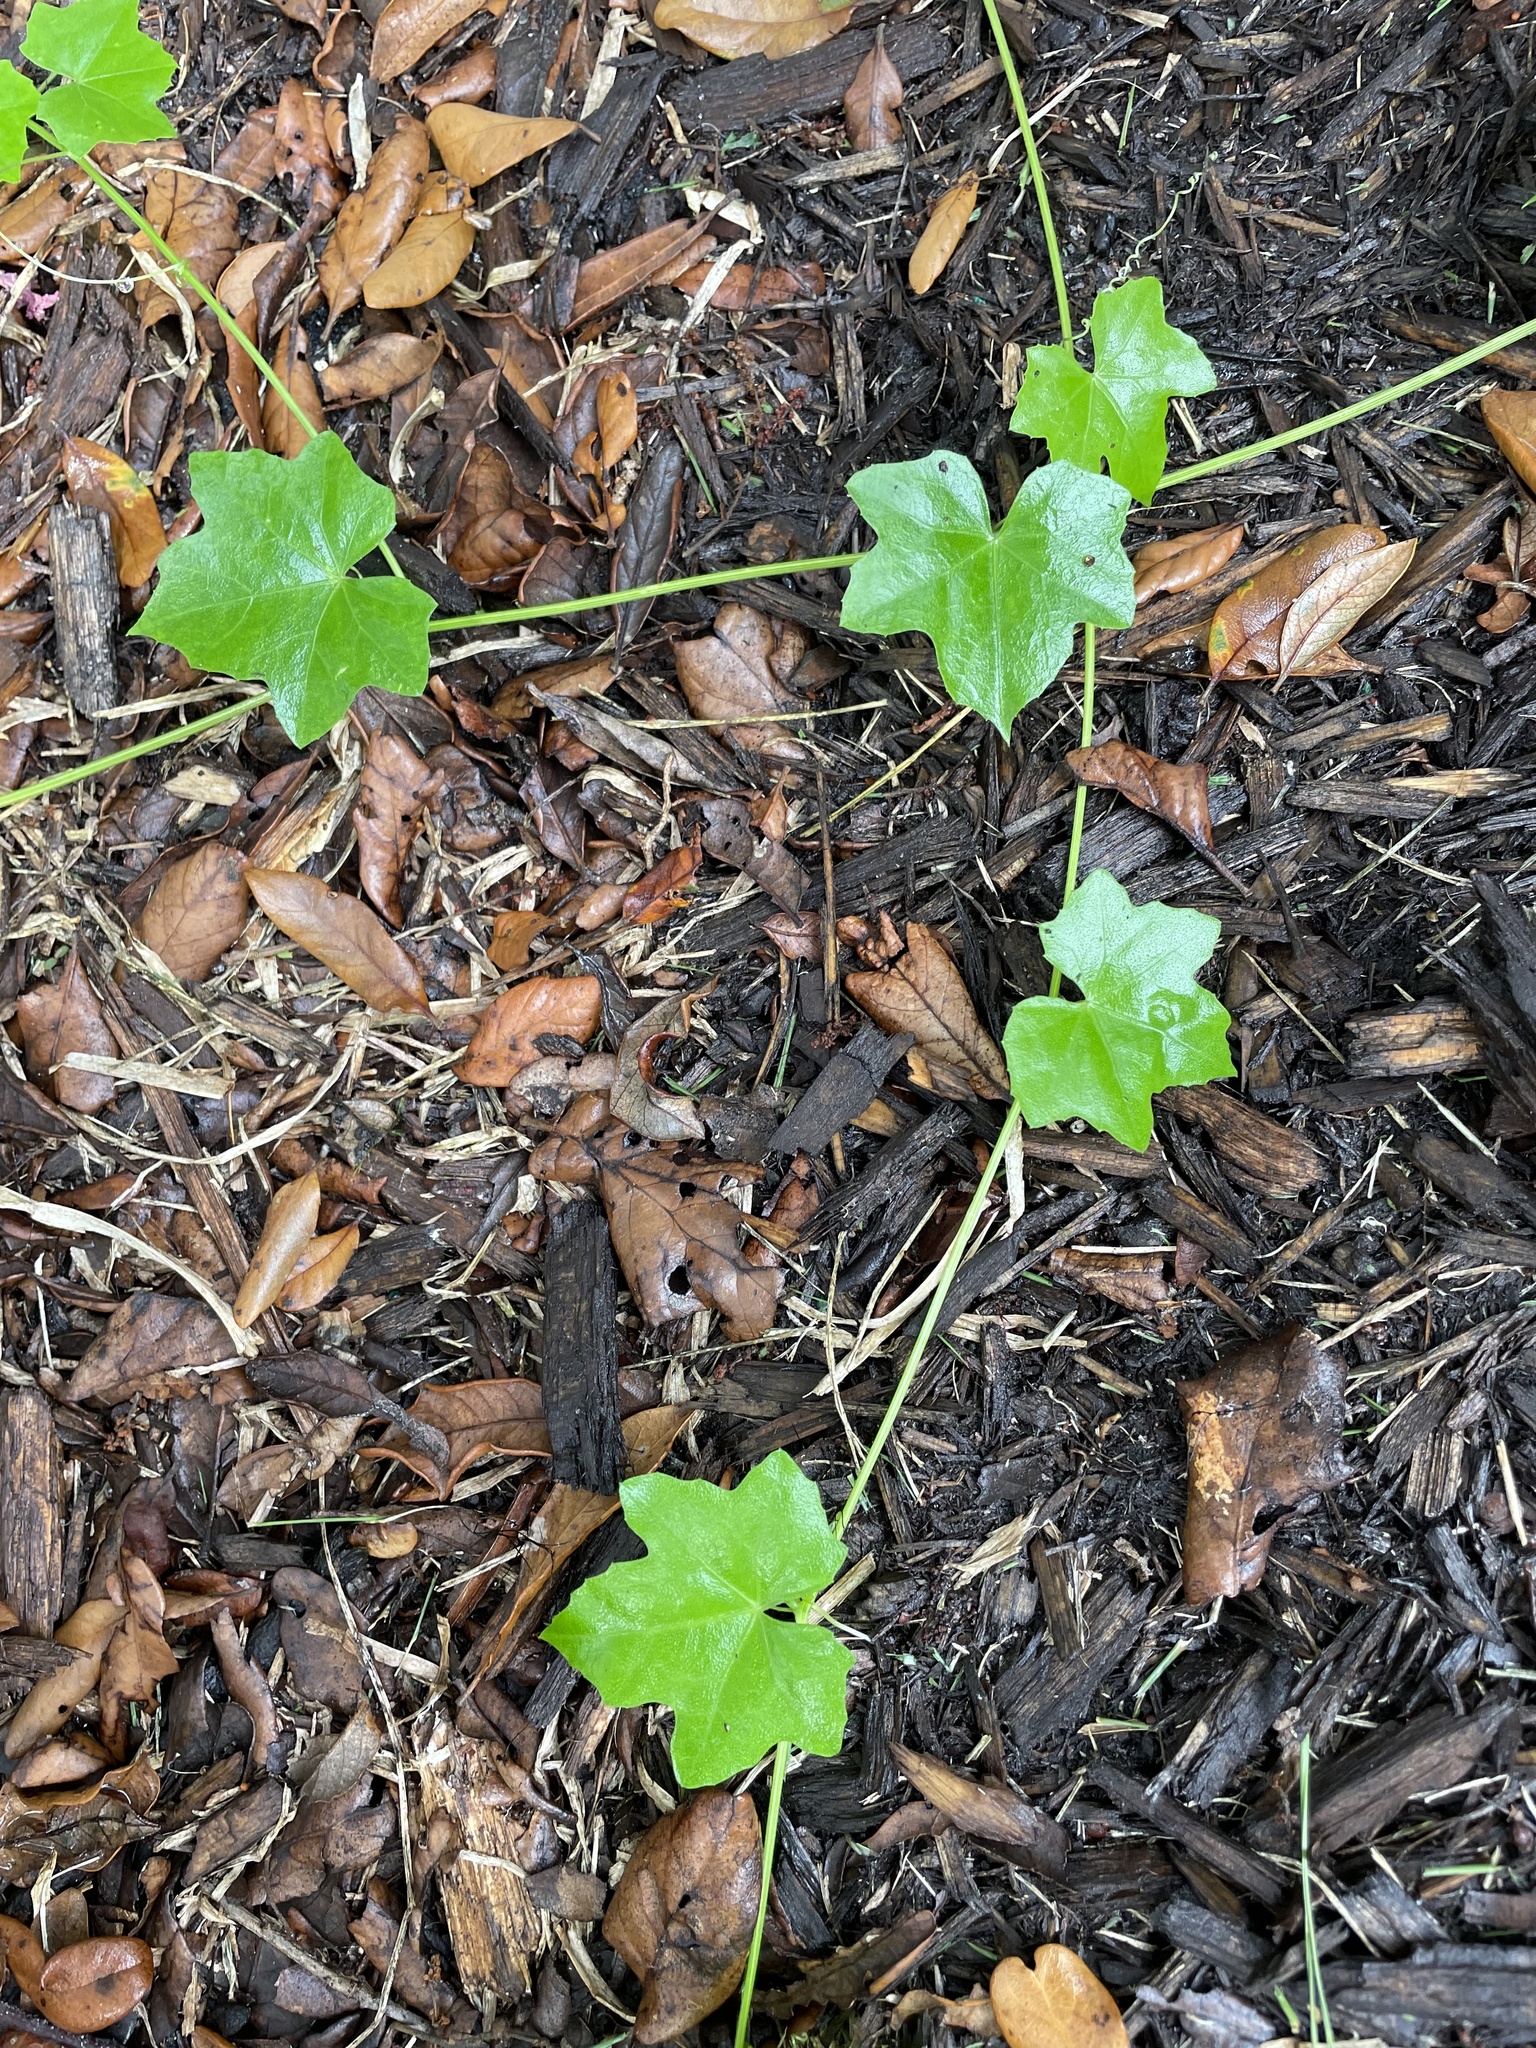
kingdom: Plantae
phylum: Tracheophyta
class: Magnoliopsida
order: Cucurbitales
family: Cucurbitaceae
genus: Melothria
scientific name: Melothria pendula
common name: Creeping-cucumber
